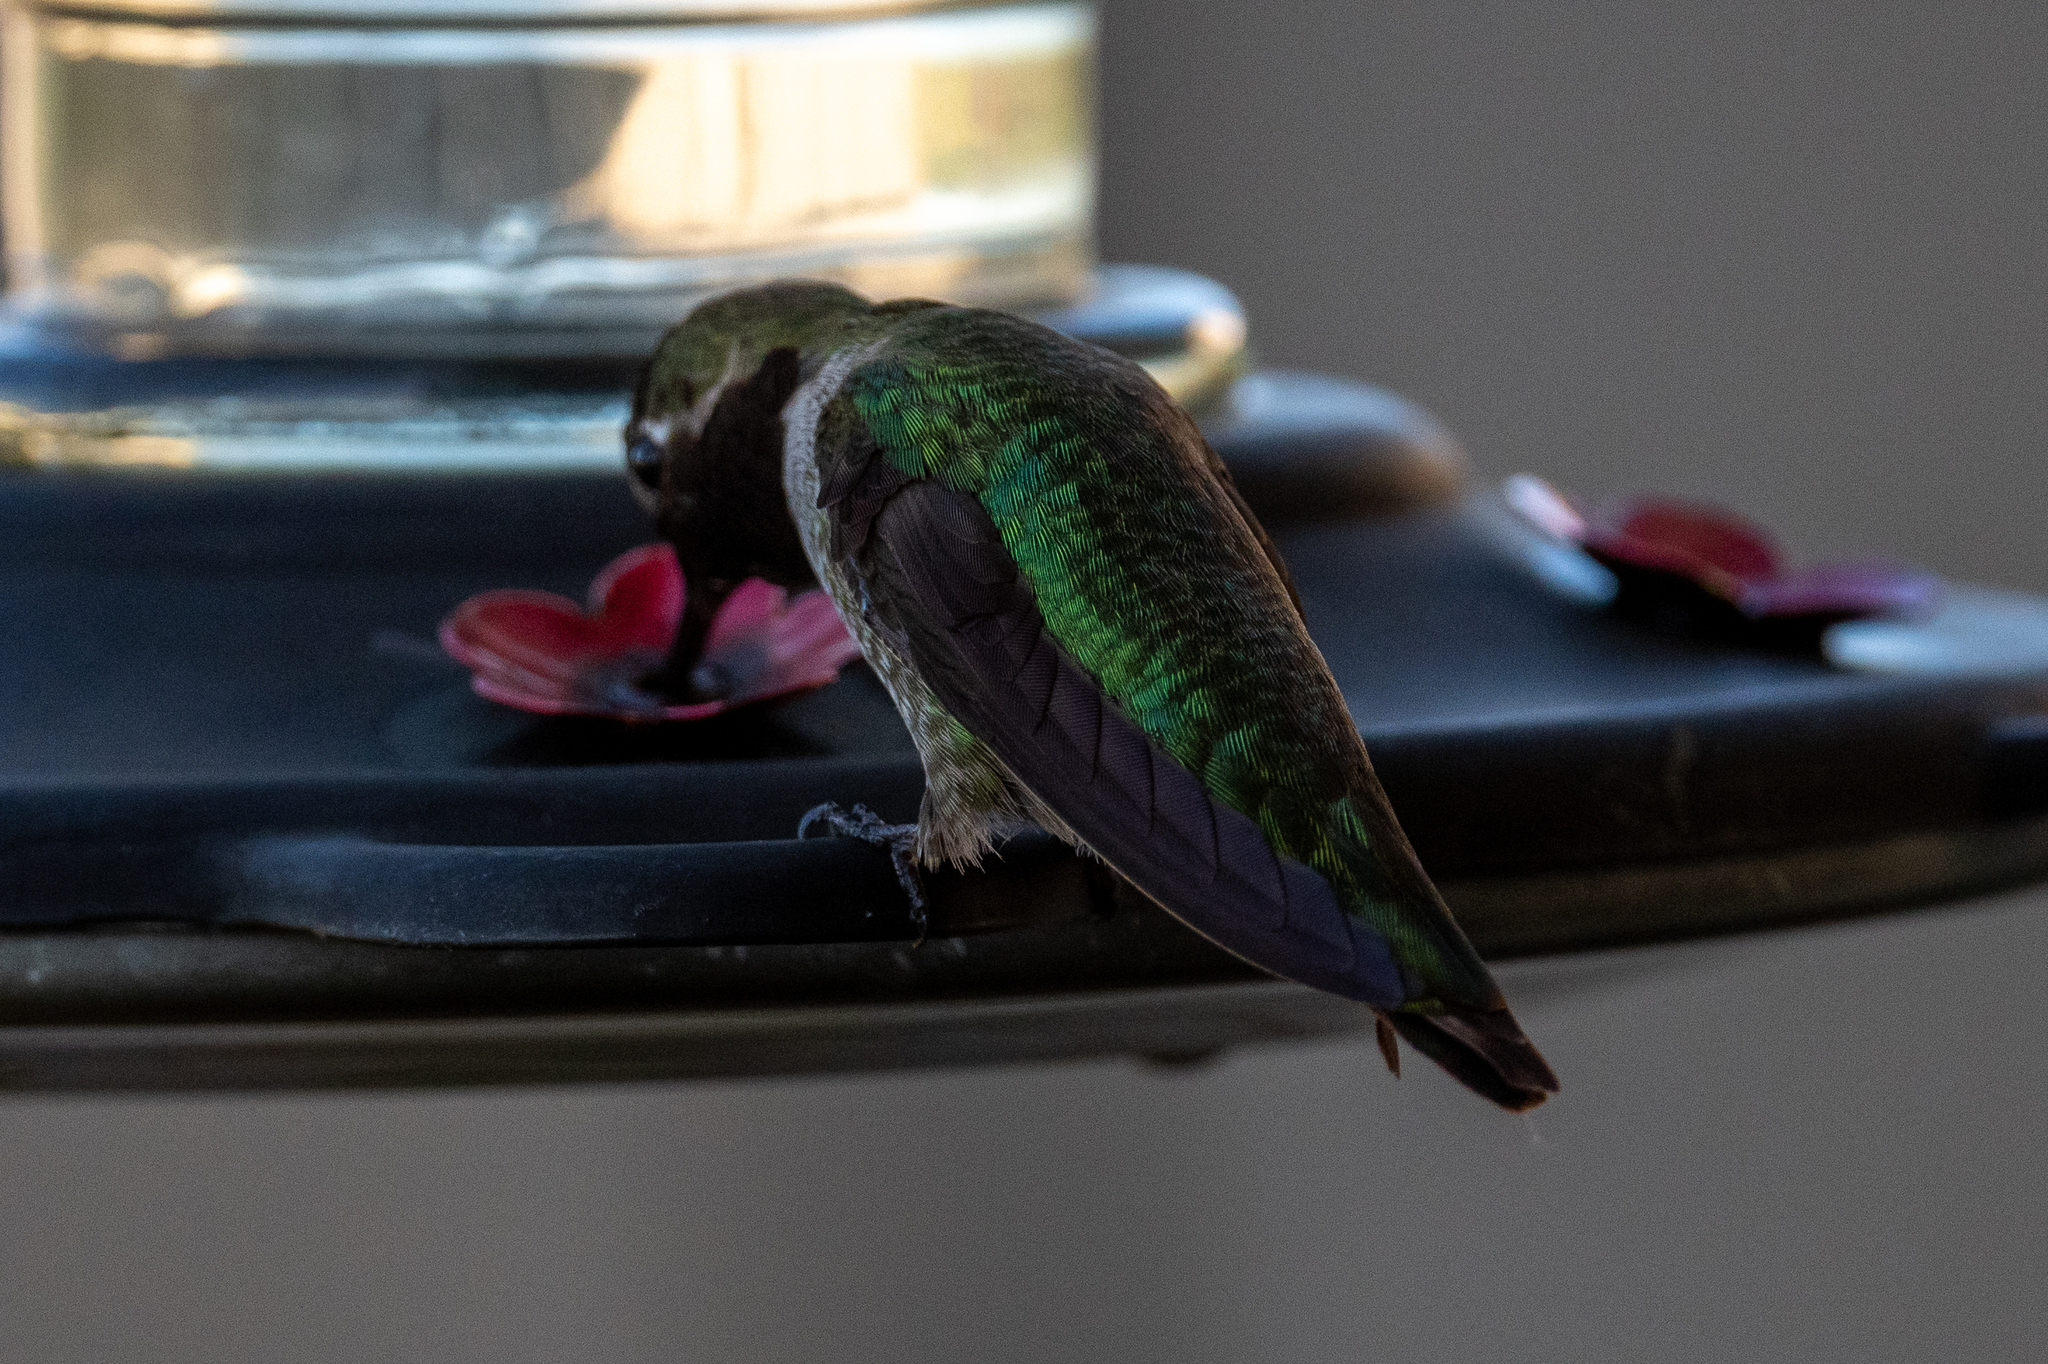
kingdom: Animalia
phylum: Chordata
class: Aves
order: Apodiformes
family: Trochilidae
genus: Calypte
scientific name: Calypte anna
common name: Anna's hummingbird
